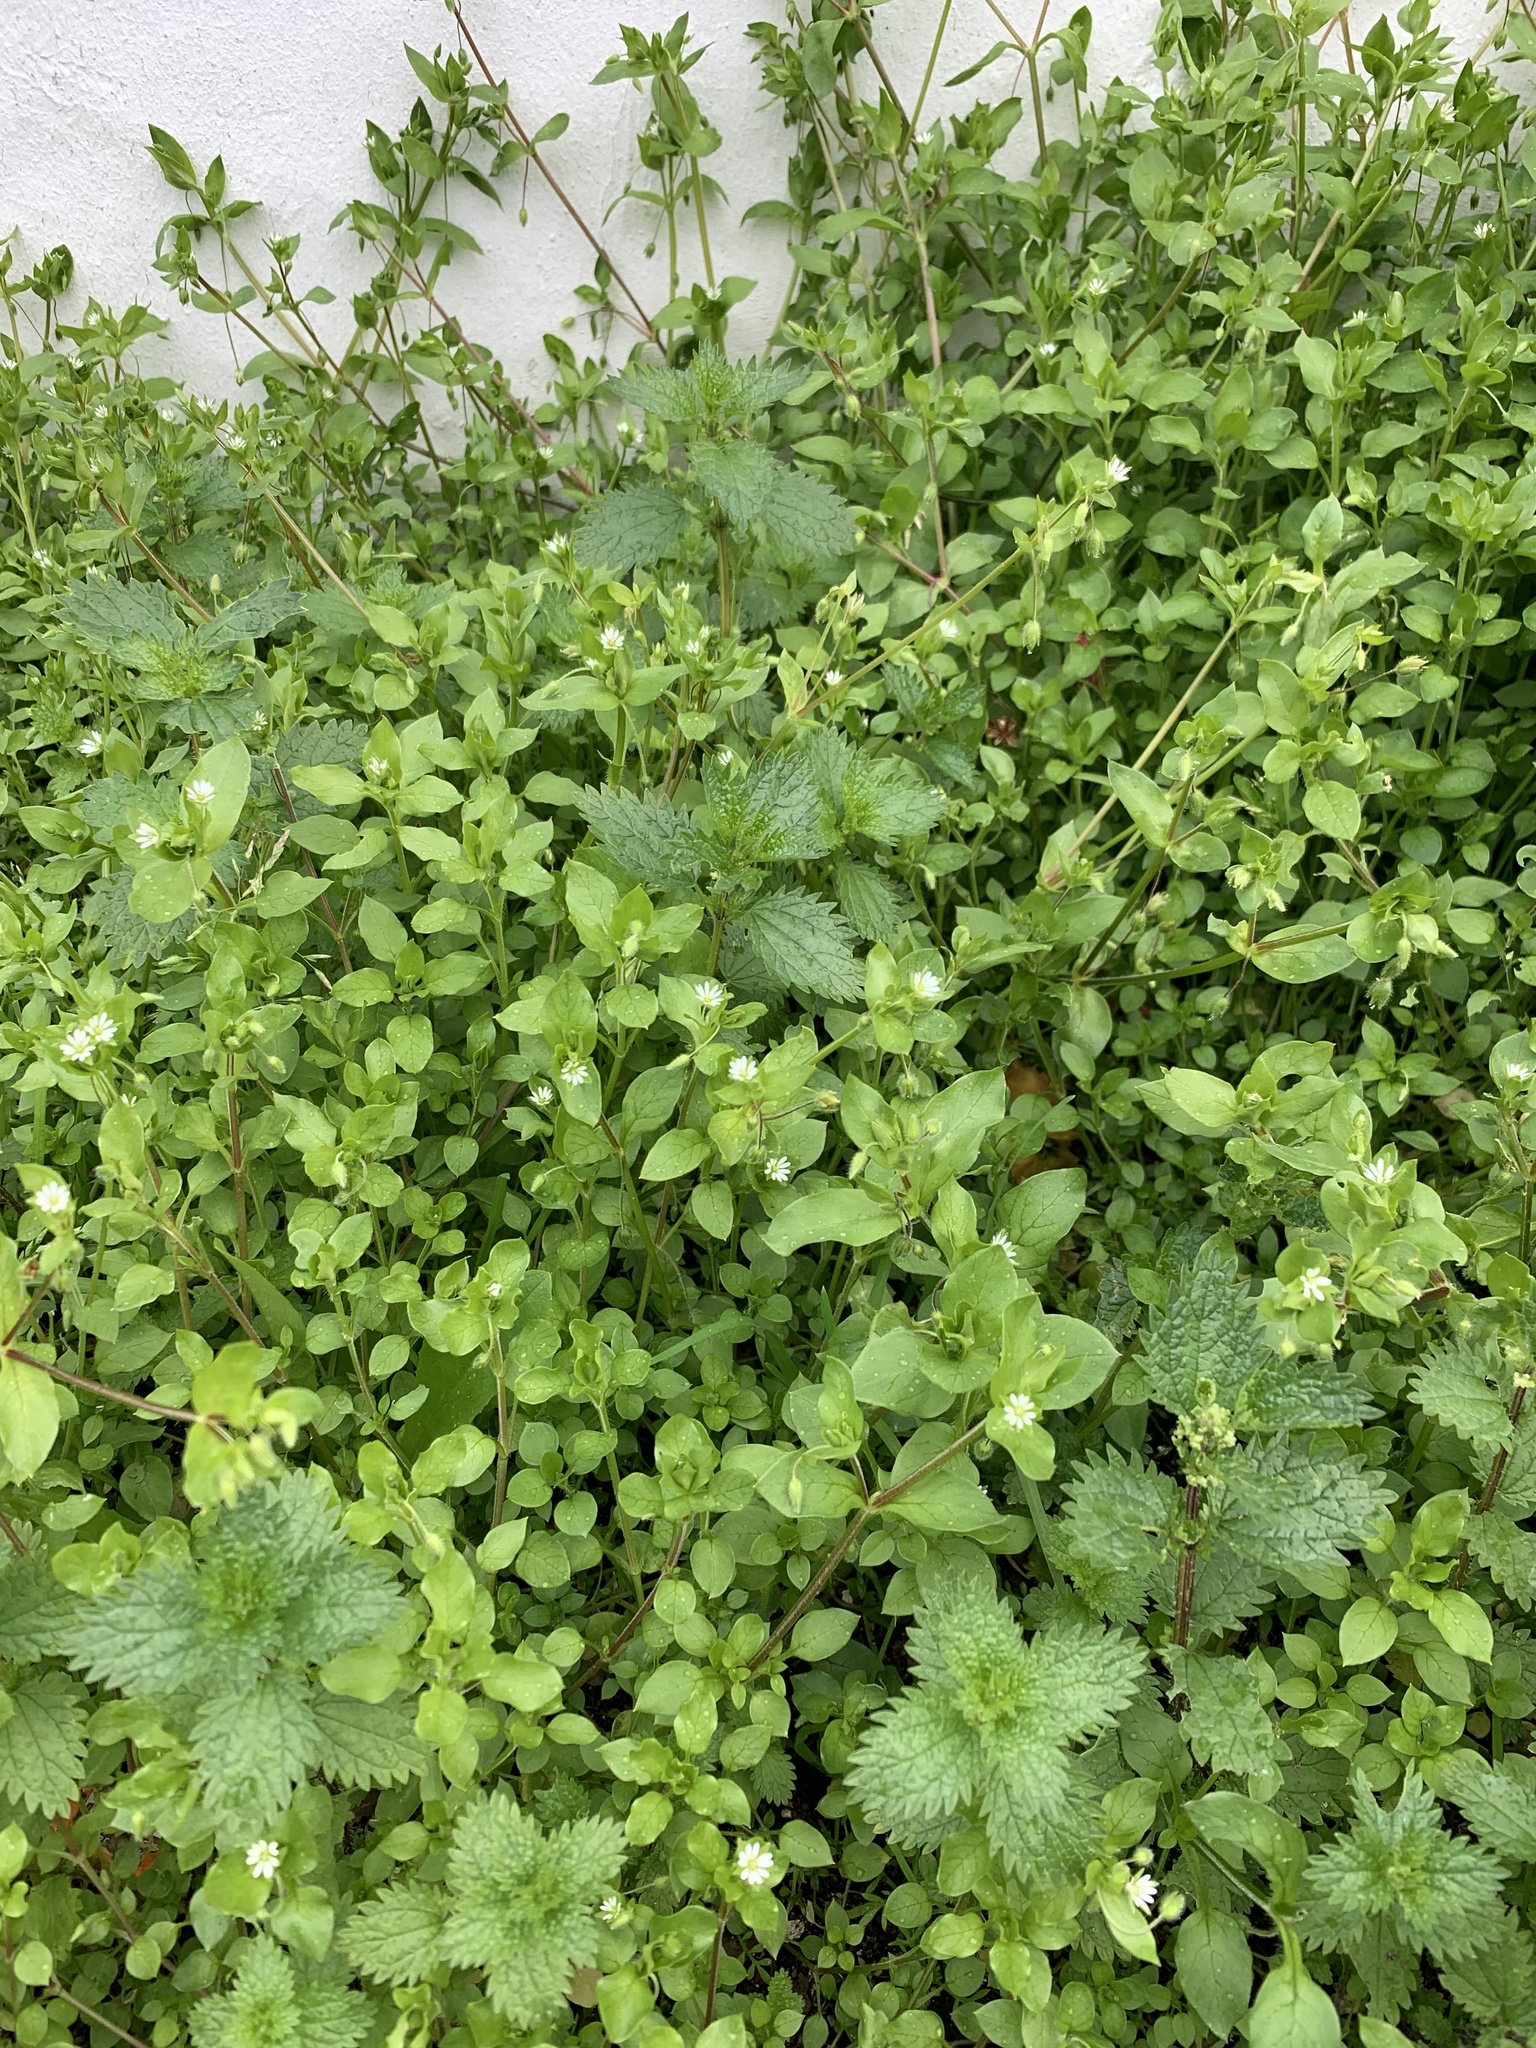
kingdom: Plantae
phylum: Tracheophyta
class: Magnoliopsida
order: Caryophyllales
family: Caryophyllaceae
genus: Stellaria
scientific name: Stellaria media
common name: Common chickweed
